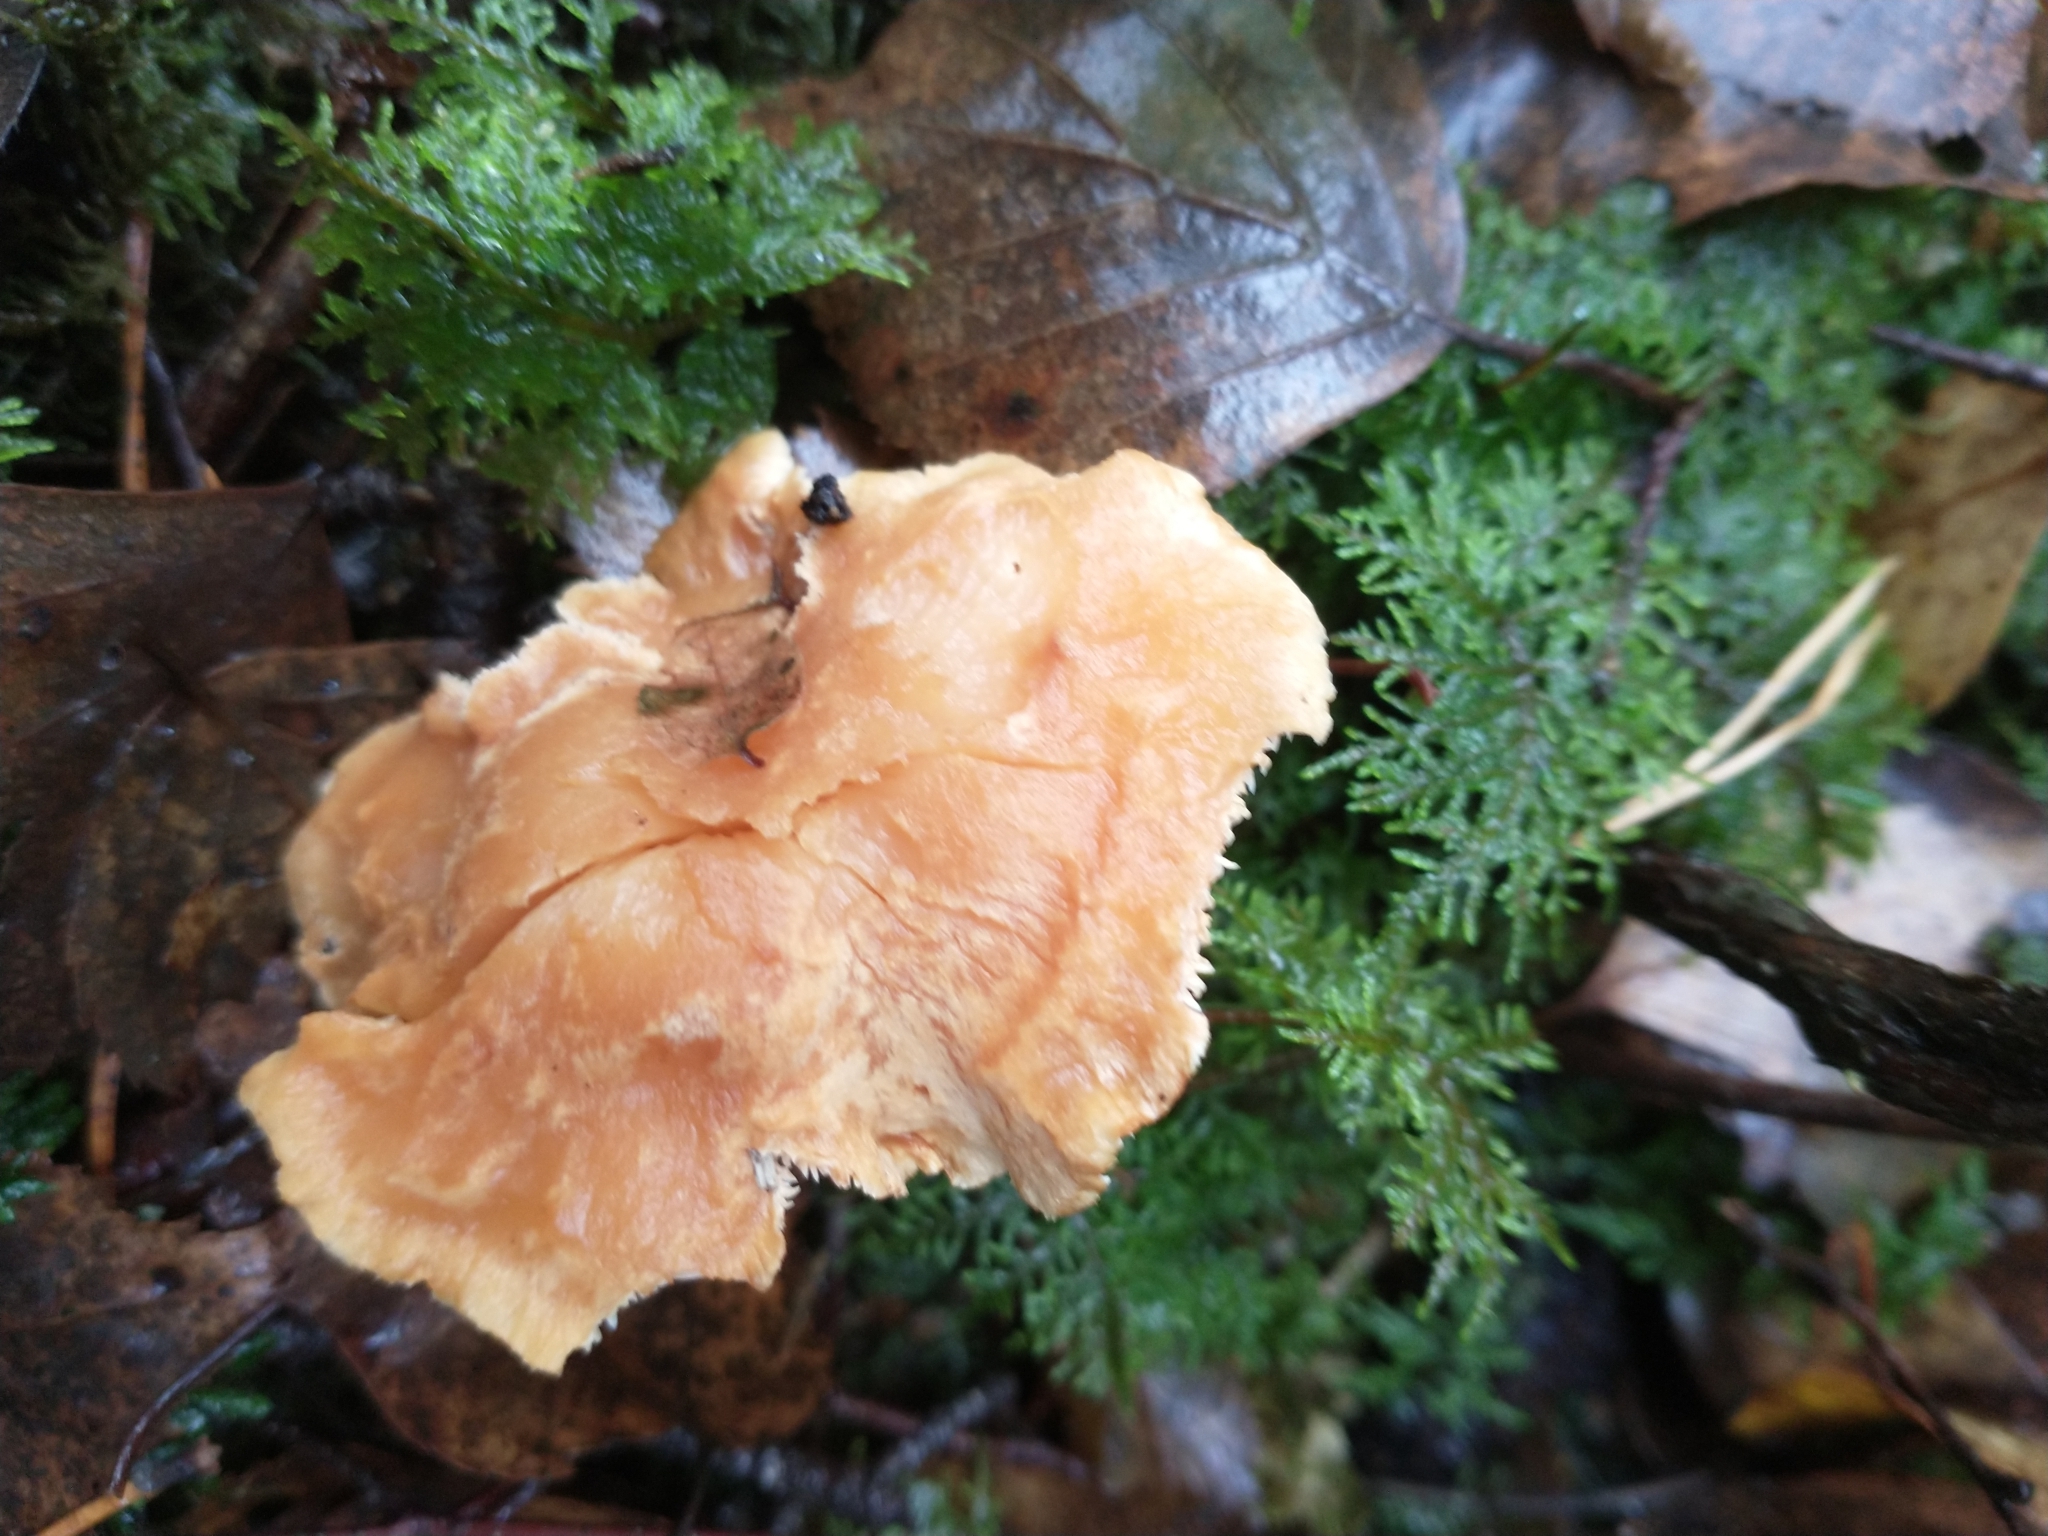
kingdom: Fungi
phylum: Basidiomycota
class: Agaricomycetes
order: Cantharellales
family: Hydnaceae
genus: Hydnum
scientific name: Hydnum repandum
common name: Wood hedgehog
